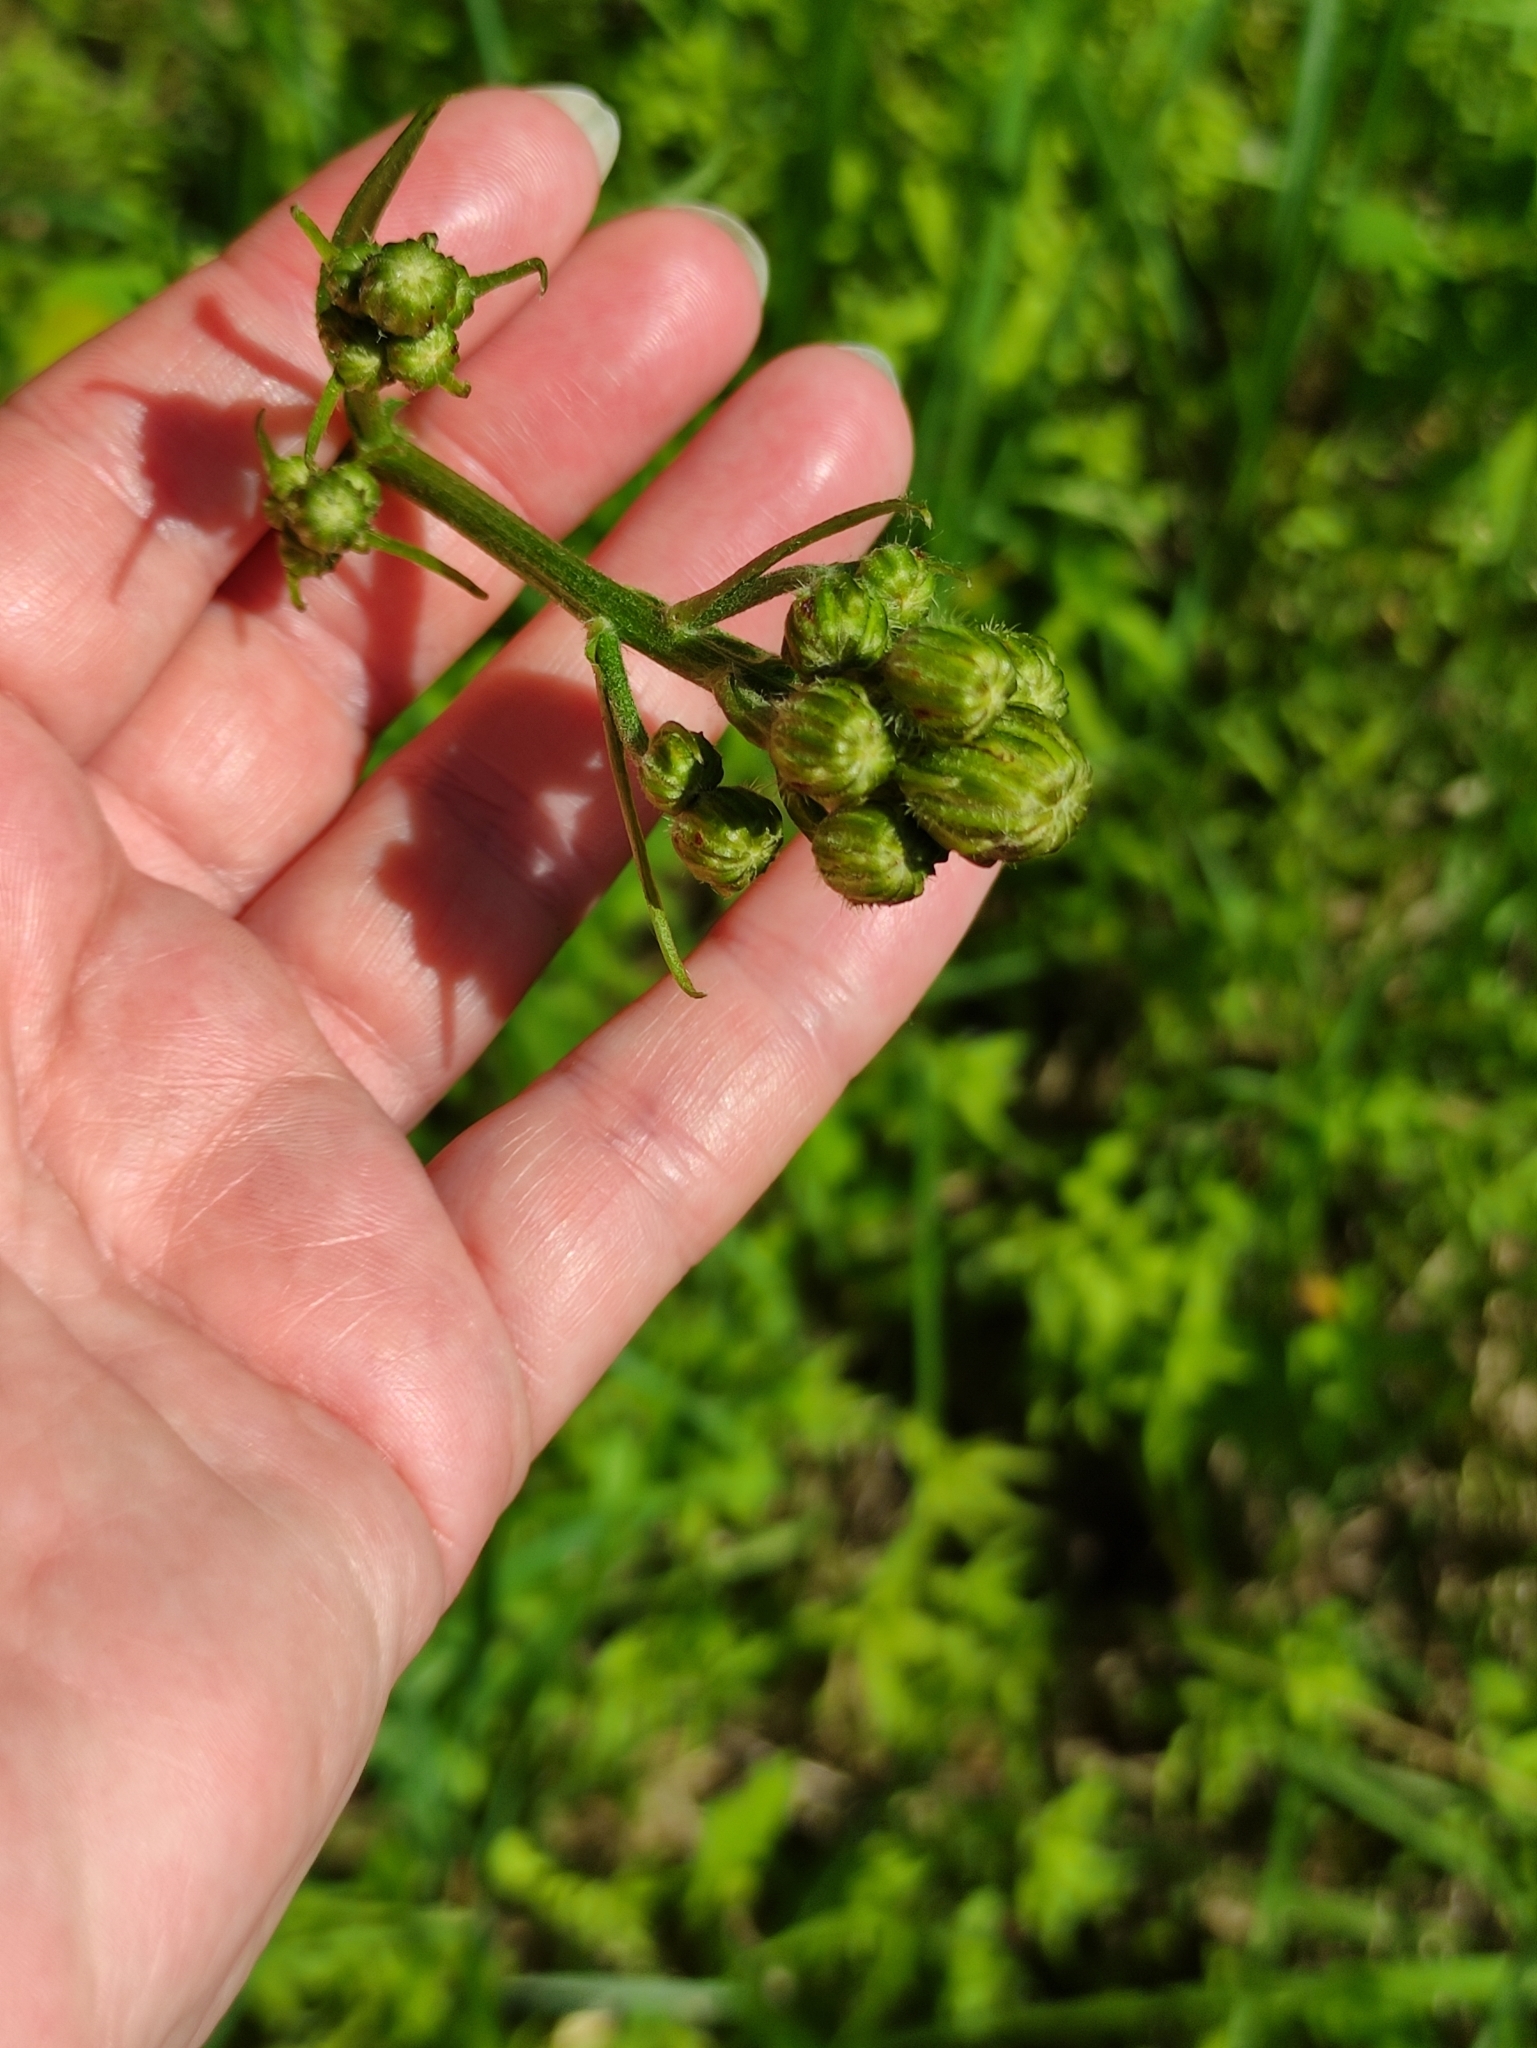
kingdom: Plantae
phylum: Tracheophyta
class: Magnoliopsida
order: Asterales
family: Asteraceae
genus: Crepis
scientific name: Crepis biennis
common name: Rough hawk's-beard
